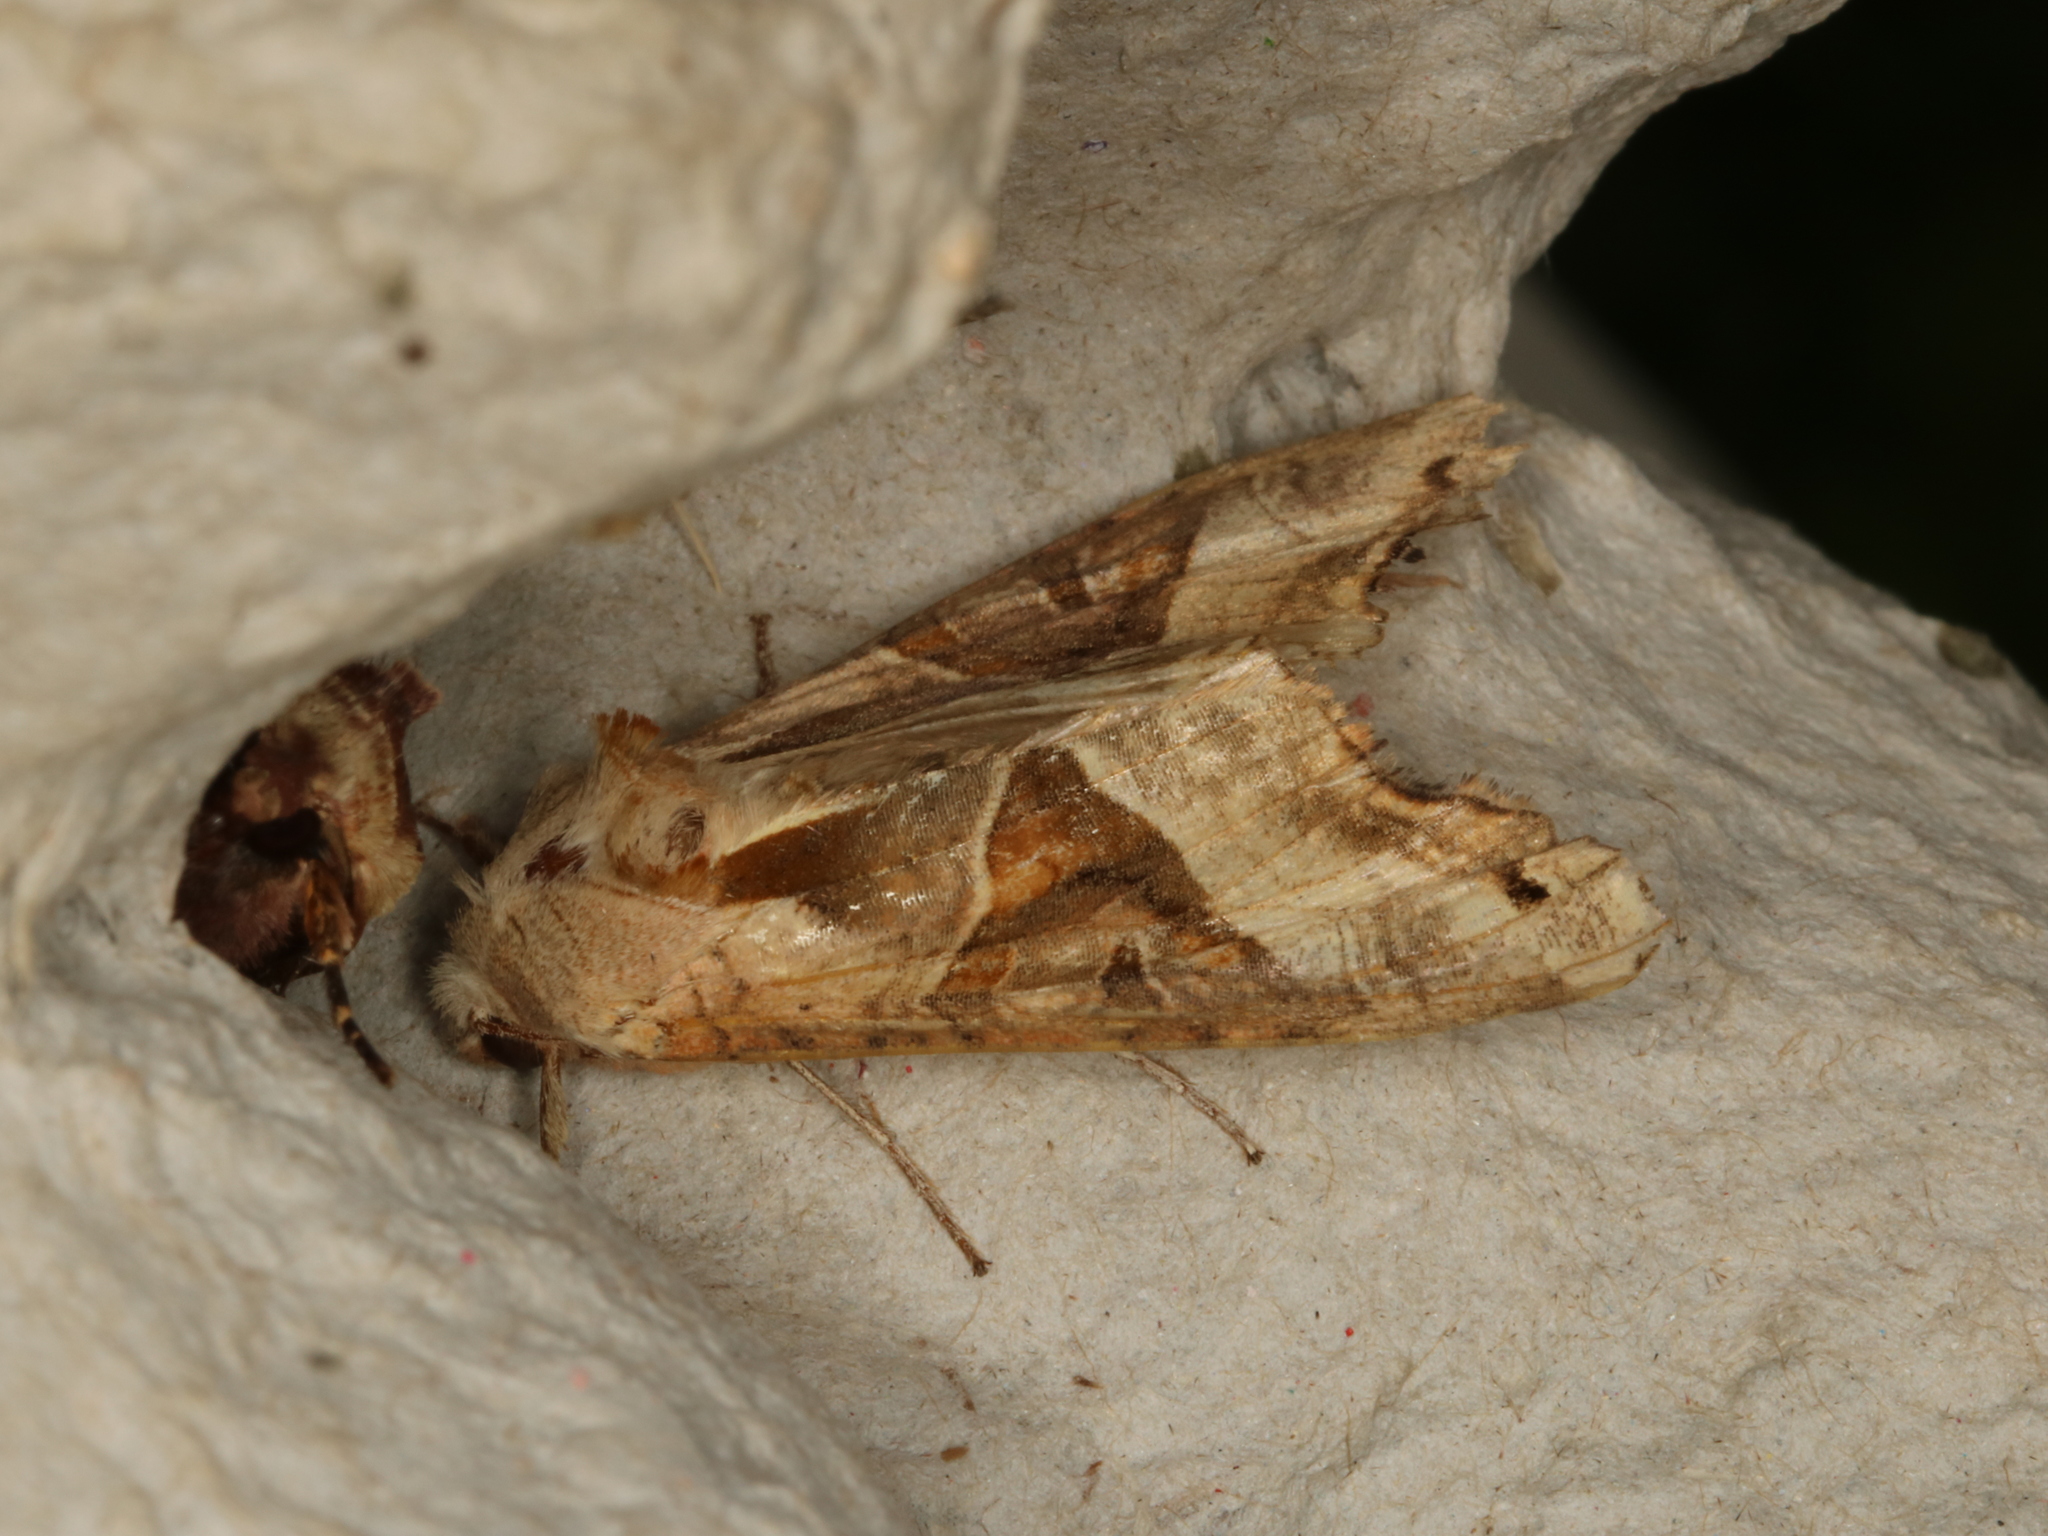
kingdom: Animalia
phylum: Arthropoda
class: Insecta
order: Lepidoptera
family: Noctuidae
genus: Phlogophora
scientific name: Phlogophora meticulosa
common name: Angle shades
